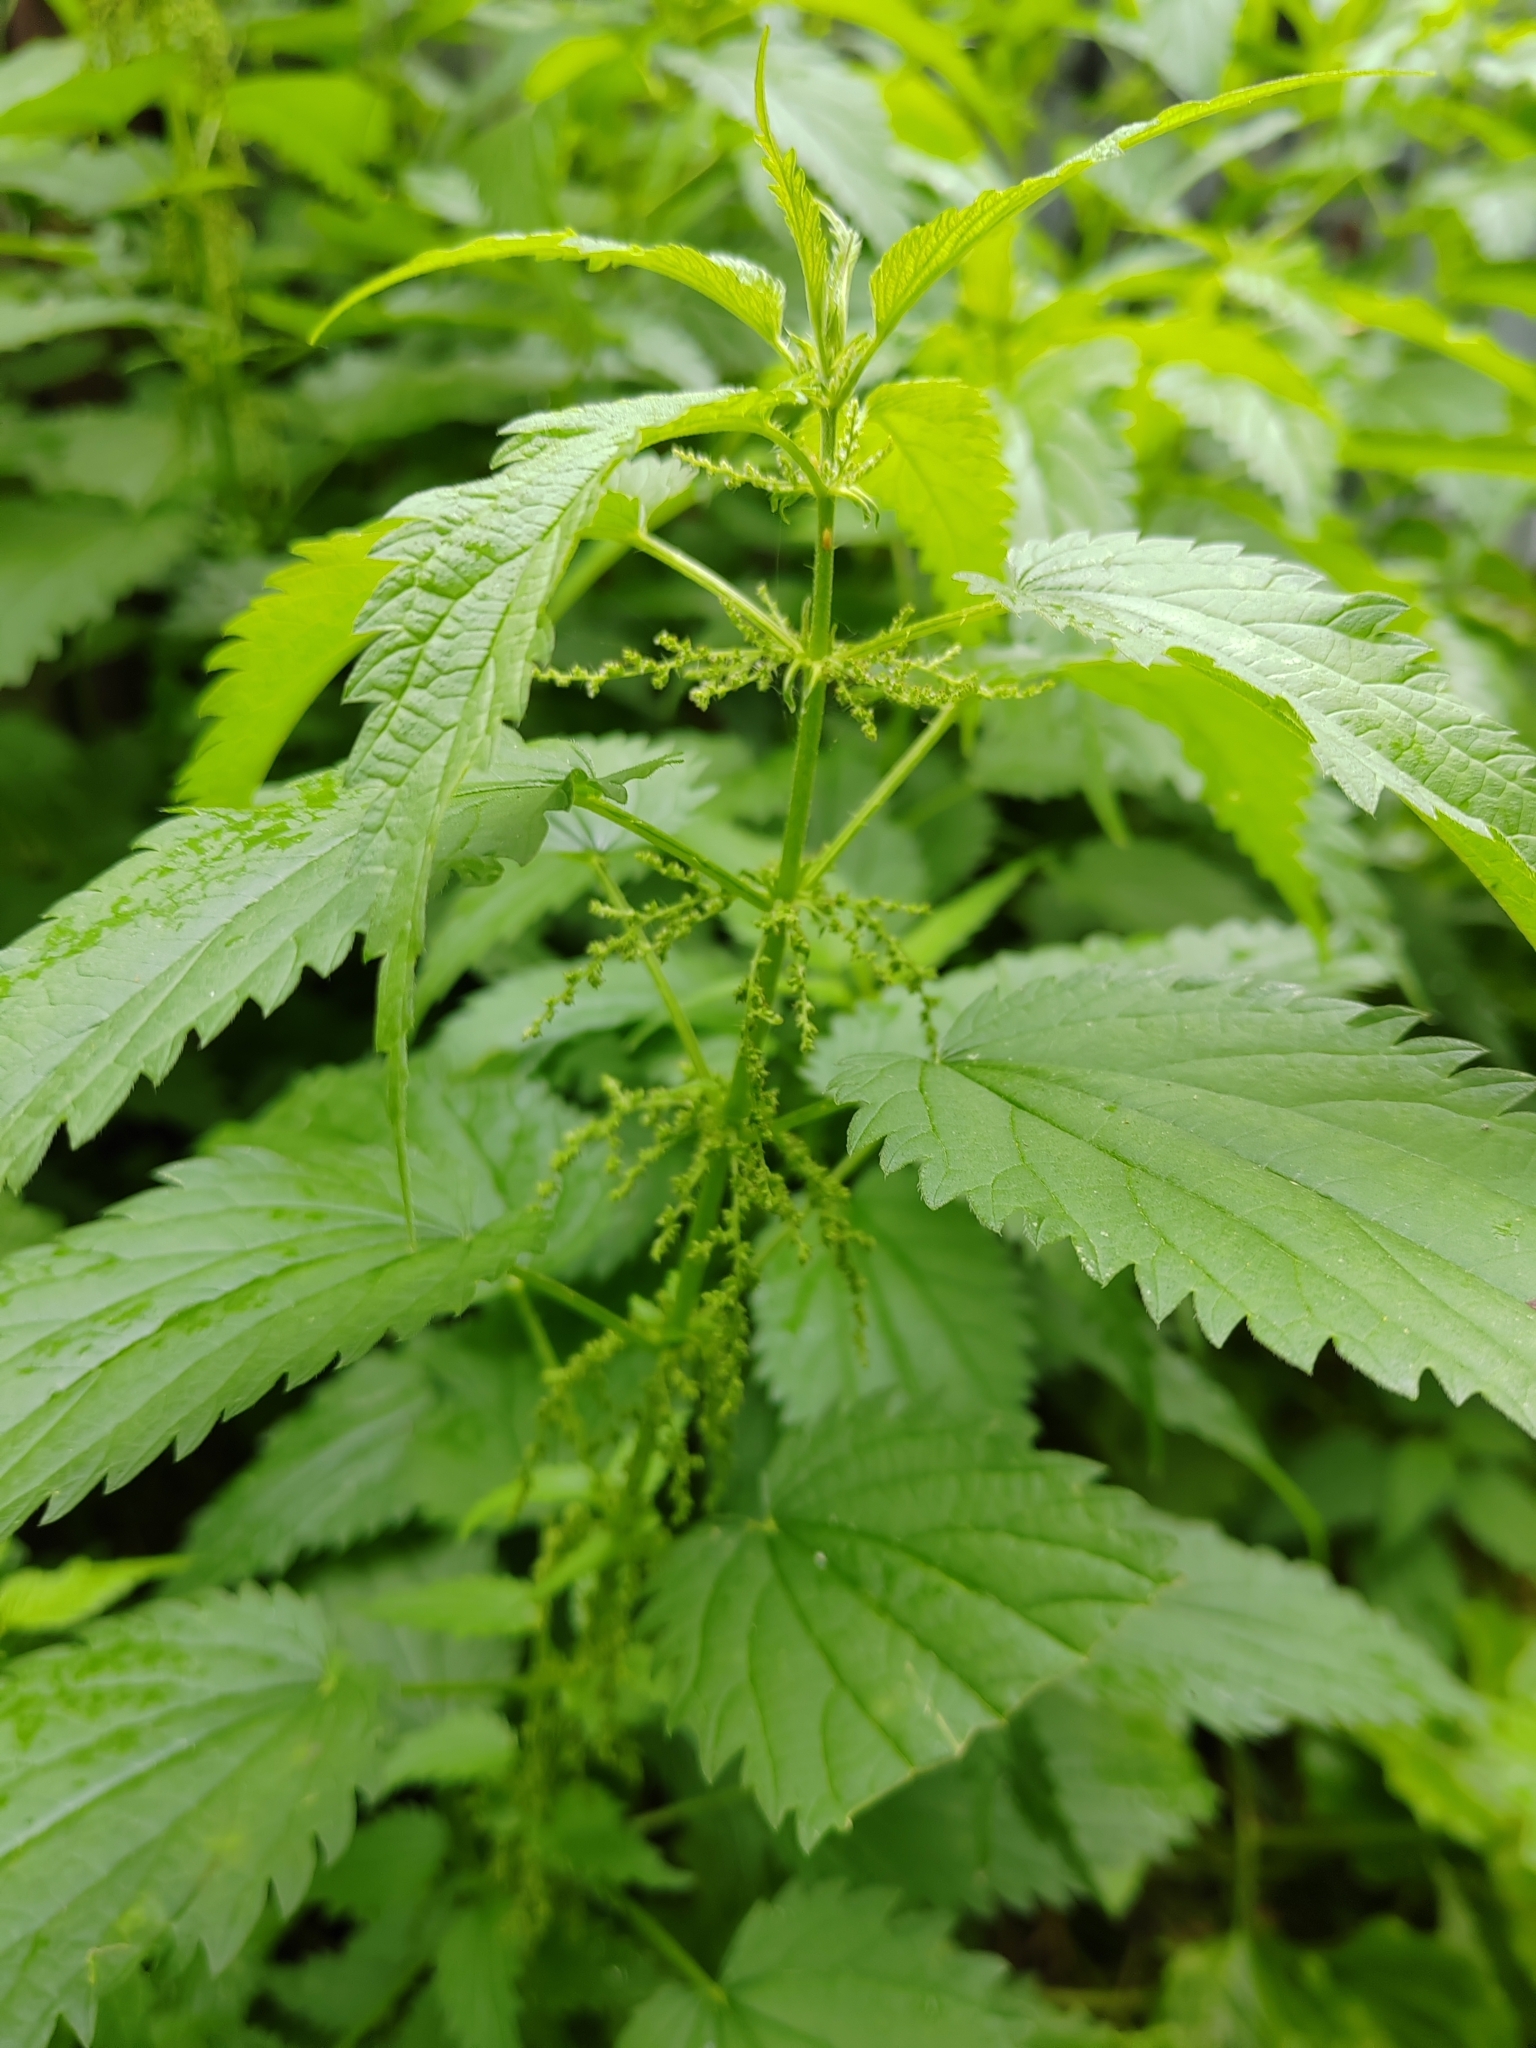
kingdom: Plantae
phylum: Tracheophyta
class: Magnoliopsida
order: Rosales
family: Urticaceae
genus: Urtica
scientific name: Urtica dioica
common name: Common nettle
